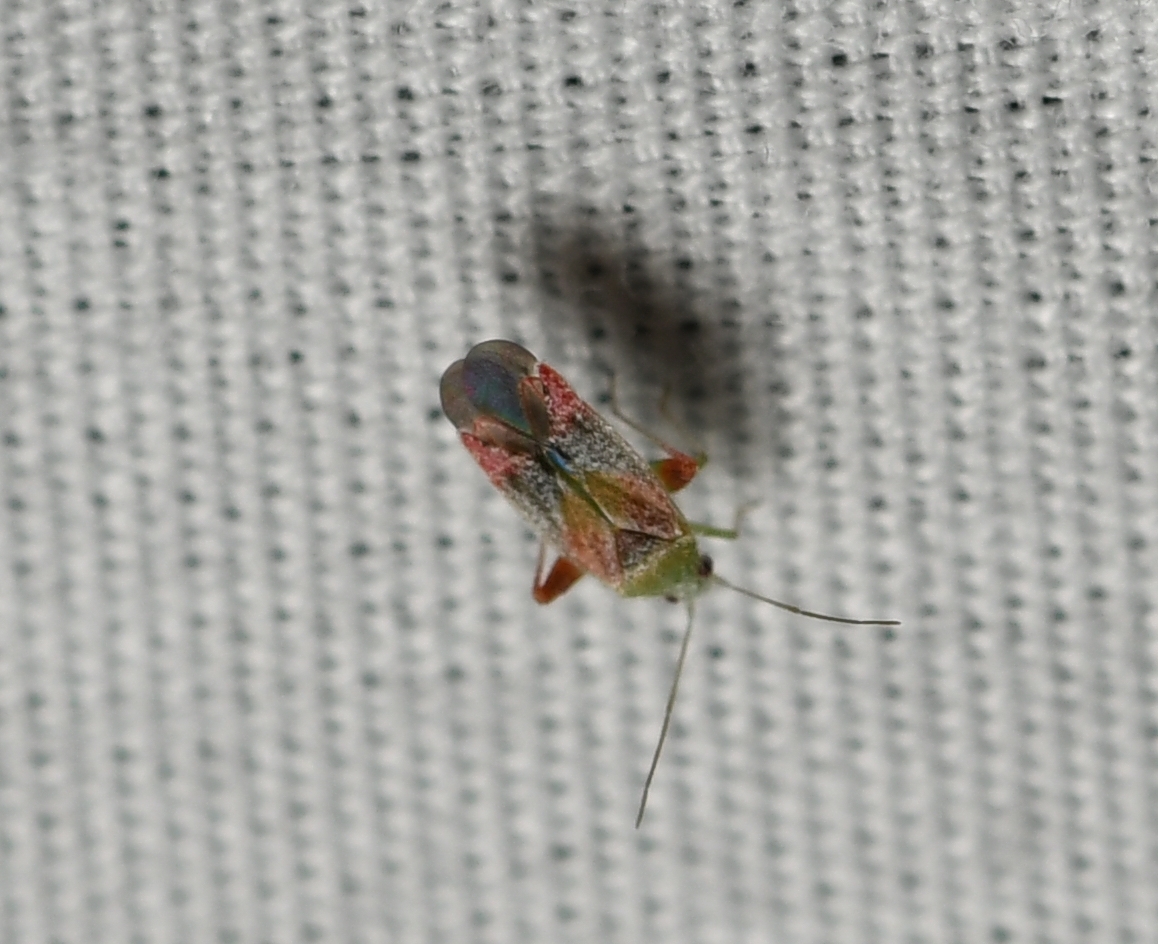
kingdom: Animalia
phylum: Arthropoda
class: Insecta
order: Hemiptera
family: Miridae
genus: Parthenicus
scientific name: Parthenicus pictus
